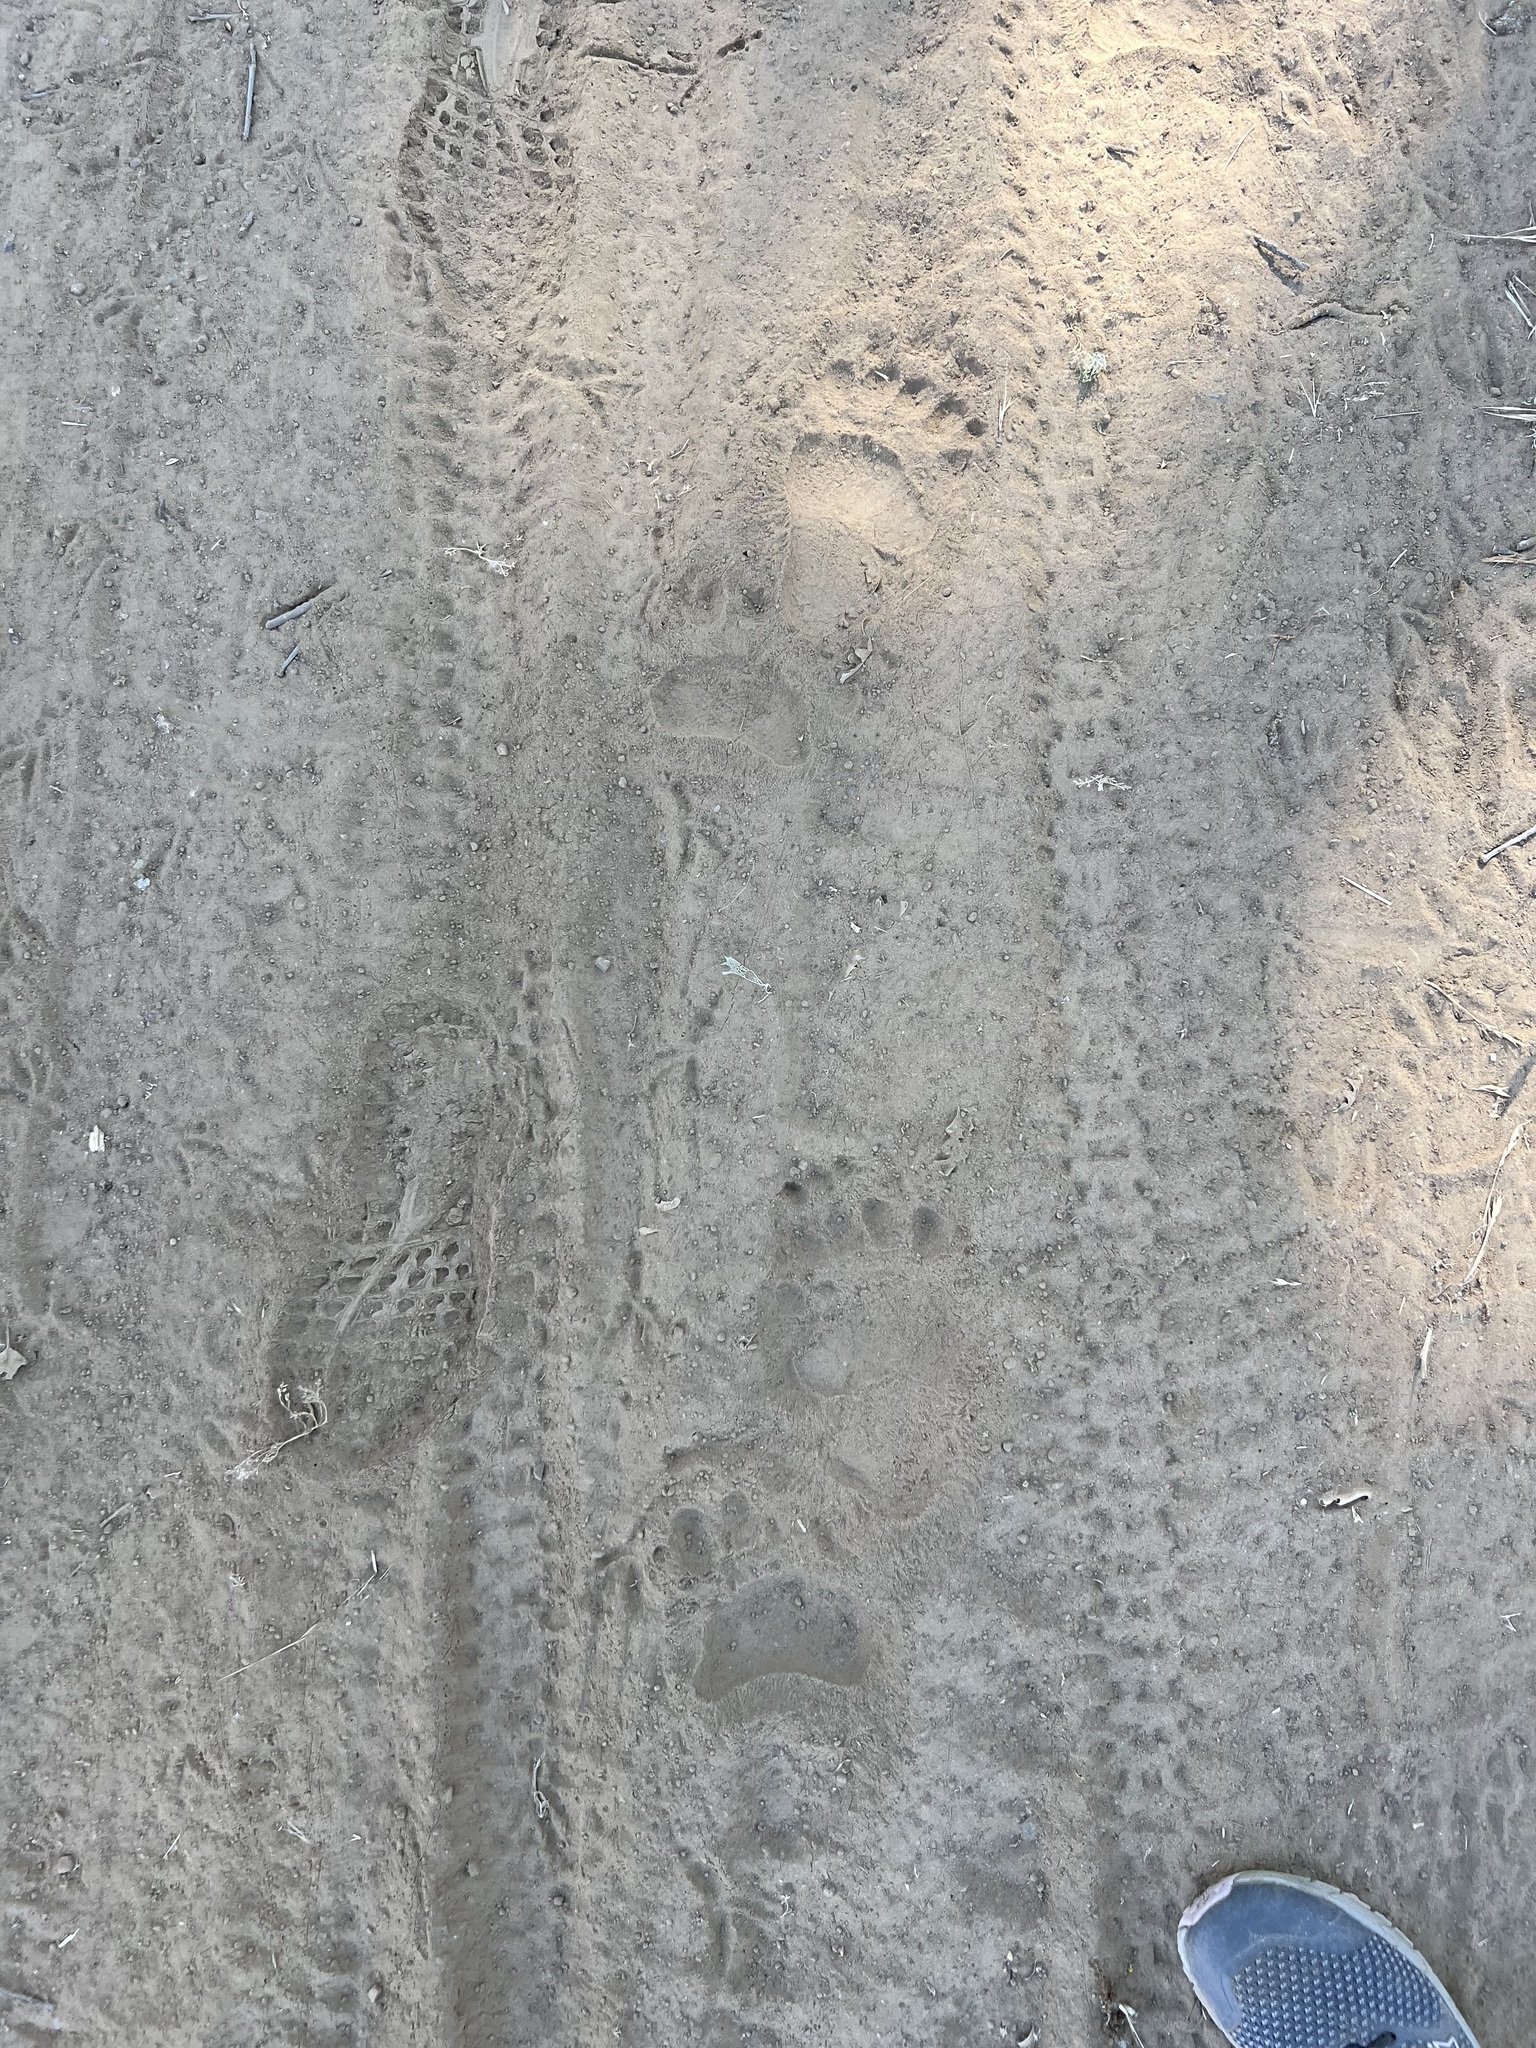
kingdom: Animalia
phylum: Chordata
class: Mammalia
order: Carnivora
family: Ursidae
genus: Ursus
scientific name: Ursus americanus
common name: American black bear
